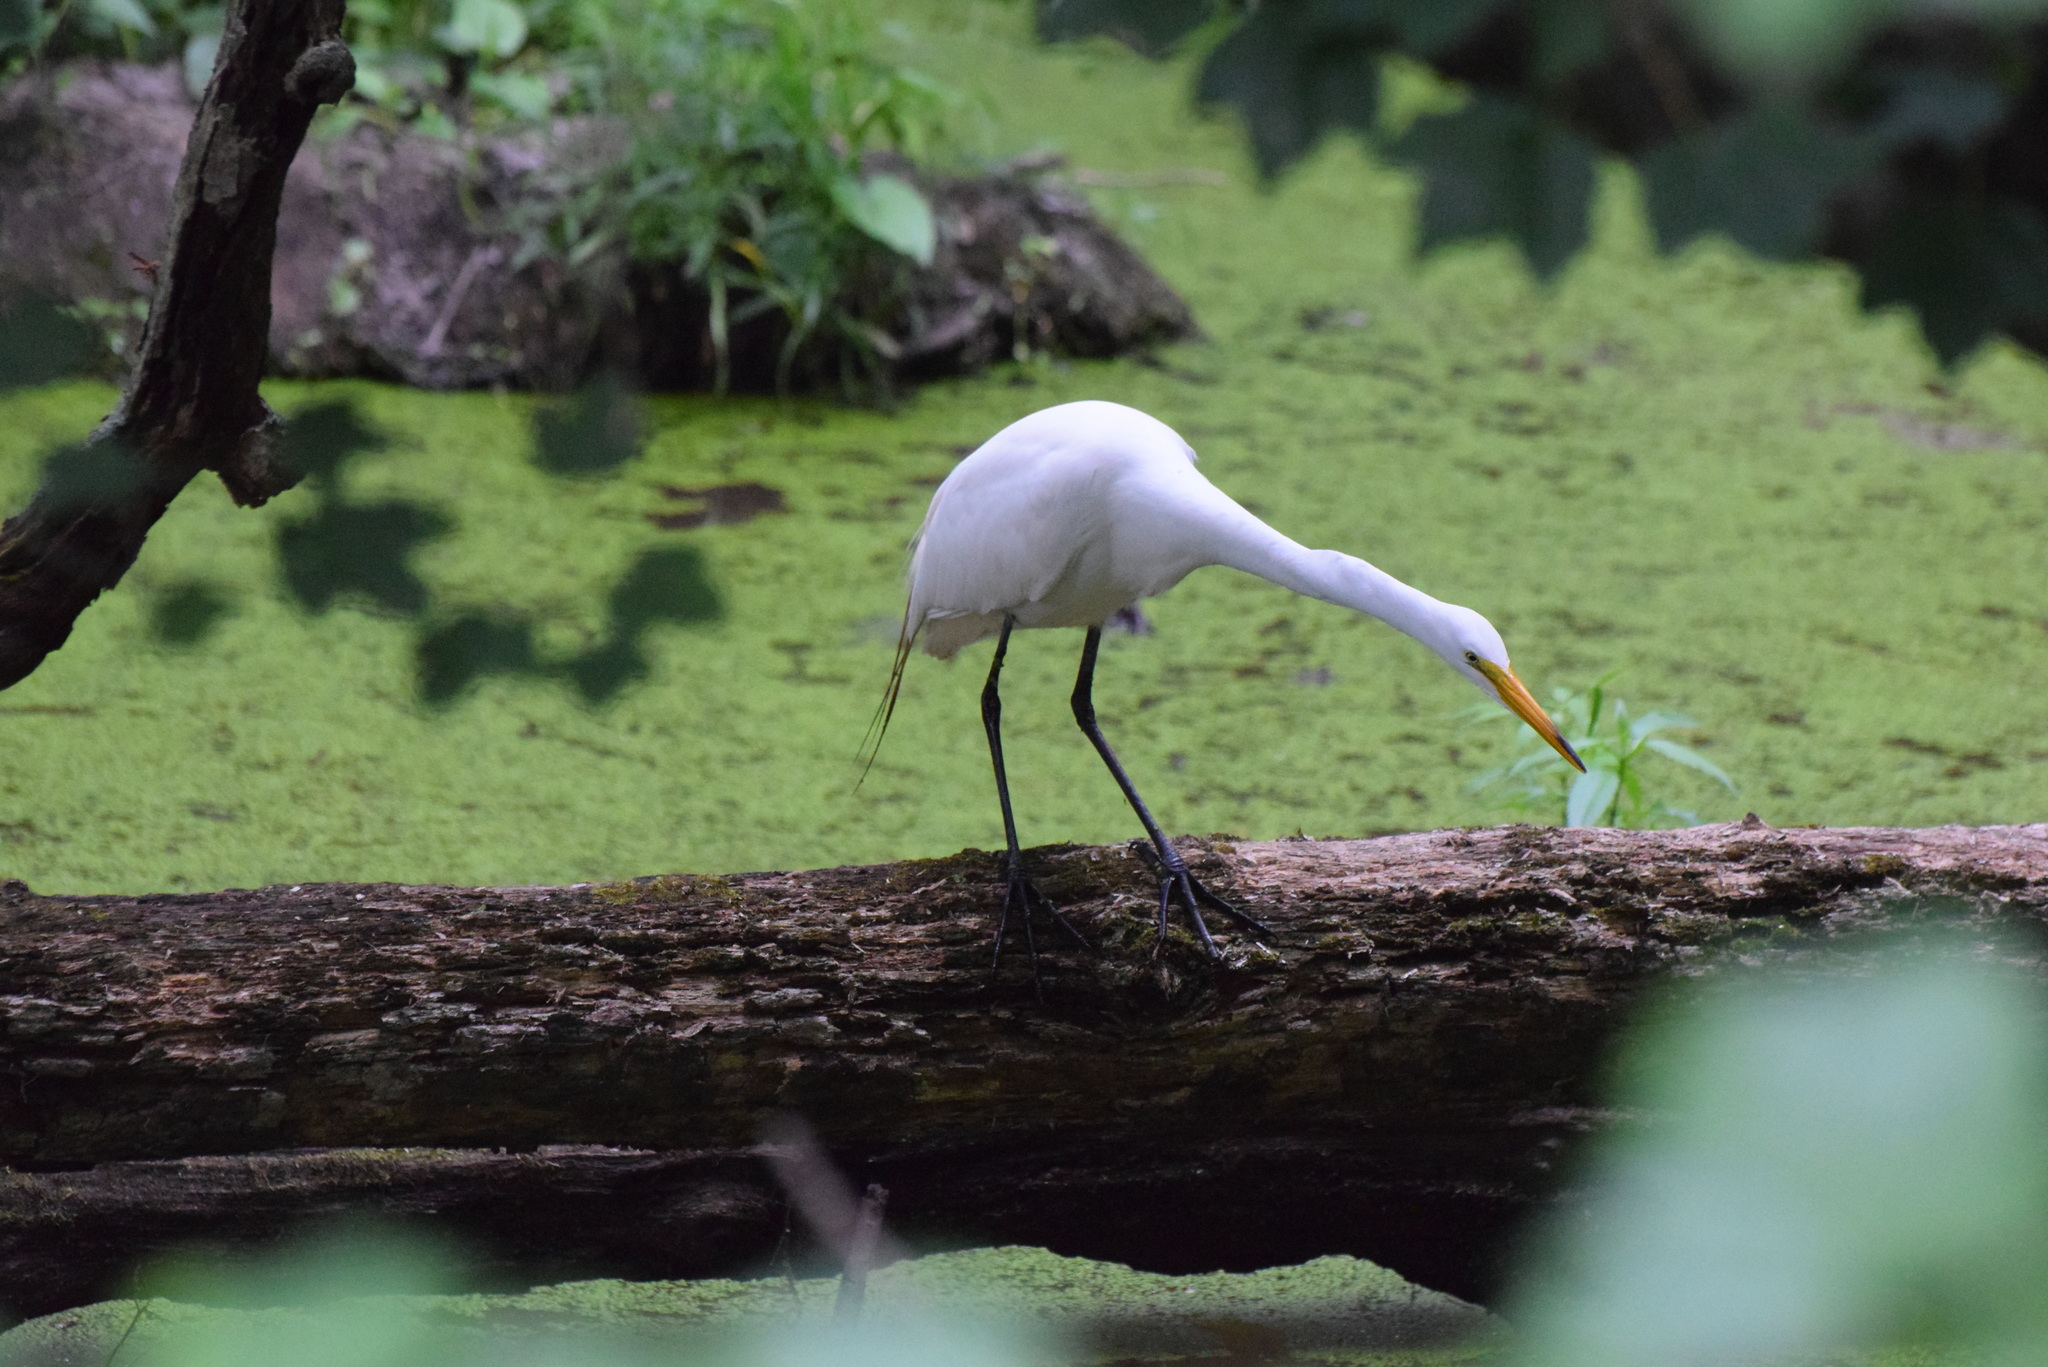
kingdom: Animalia
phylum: Chordata
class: Aves
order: Pelecaniformes
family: Ardeidae
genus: Ardea
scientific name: Ardea alba
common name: Great egret
